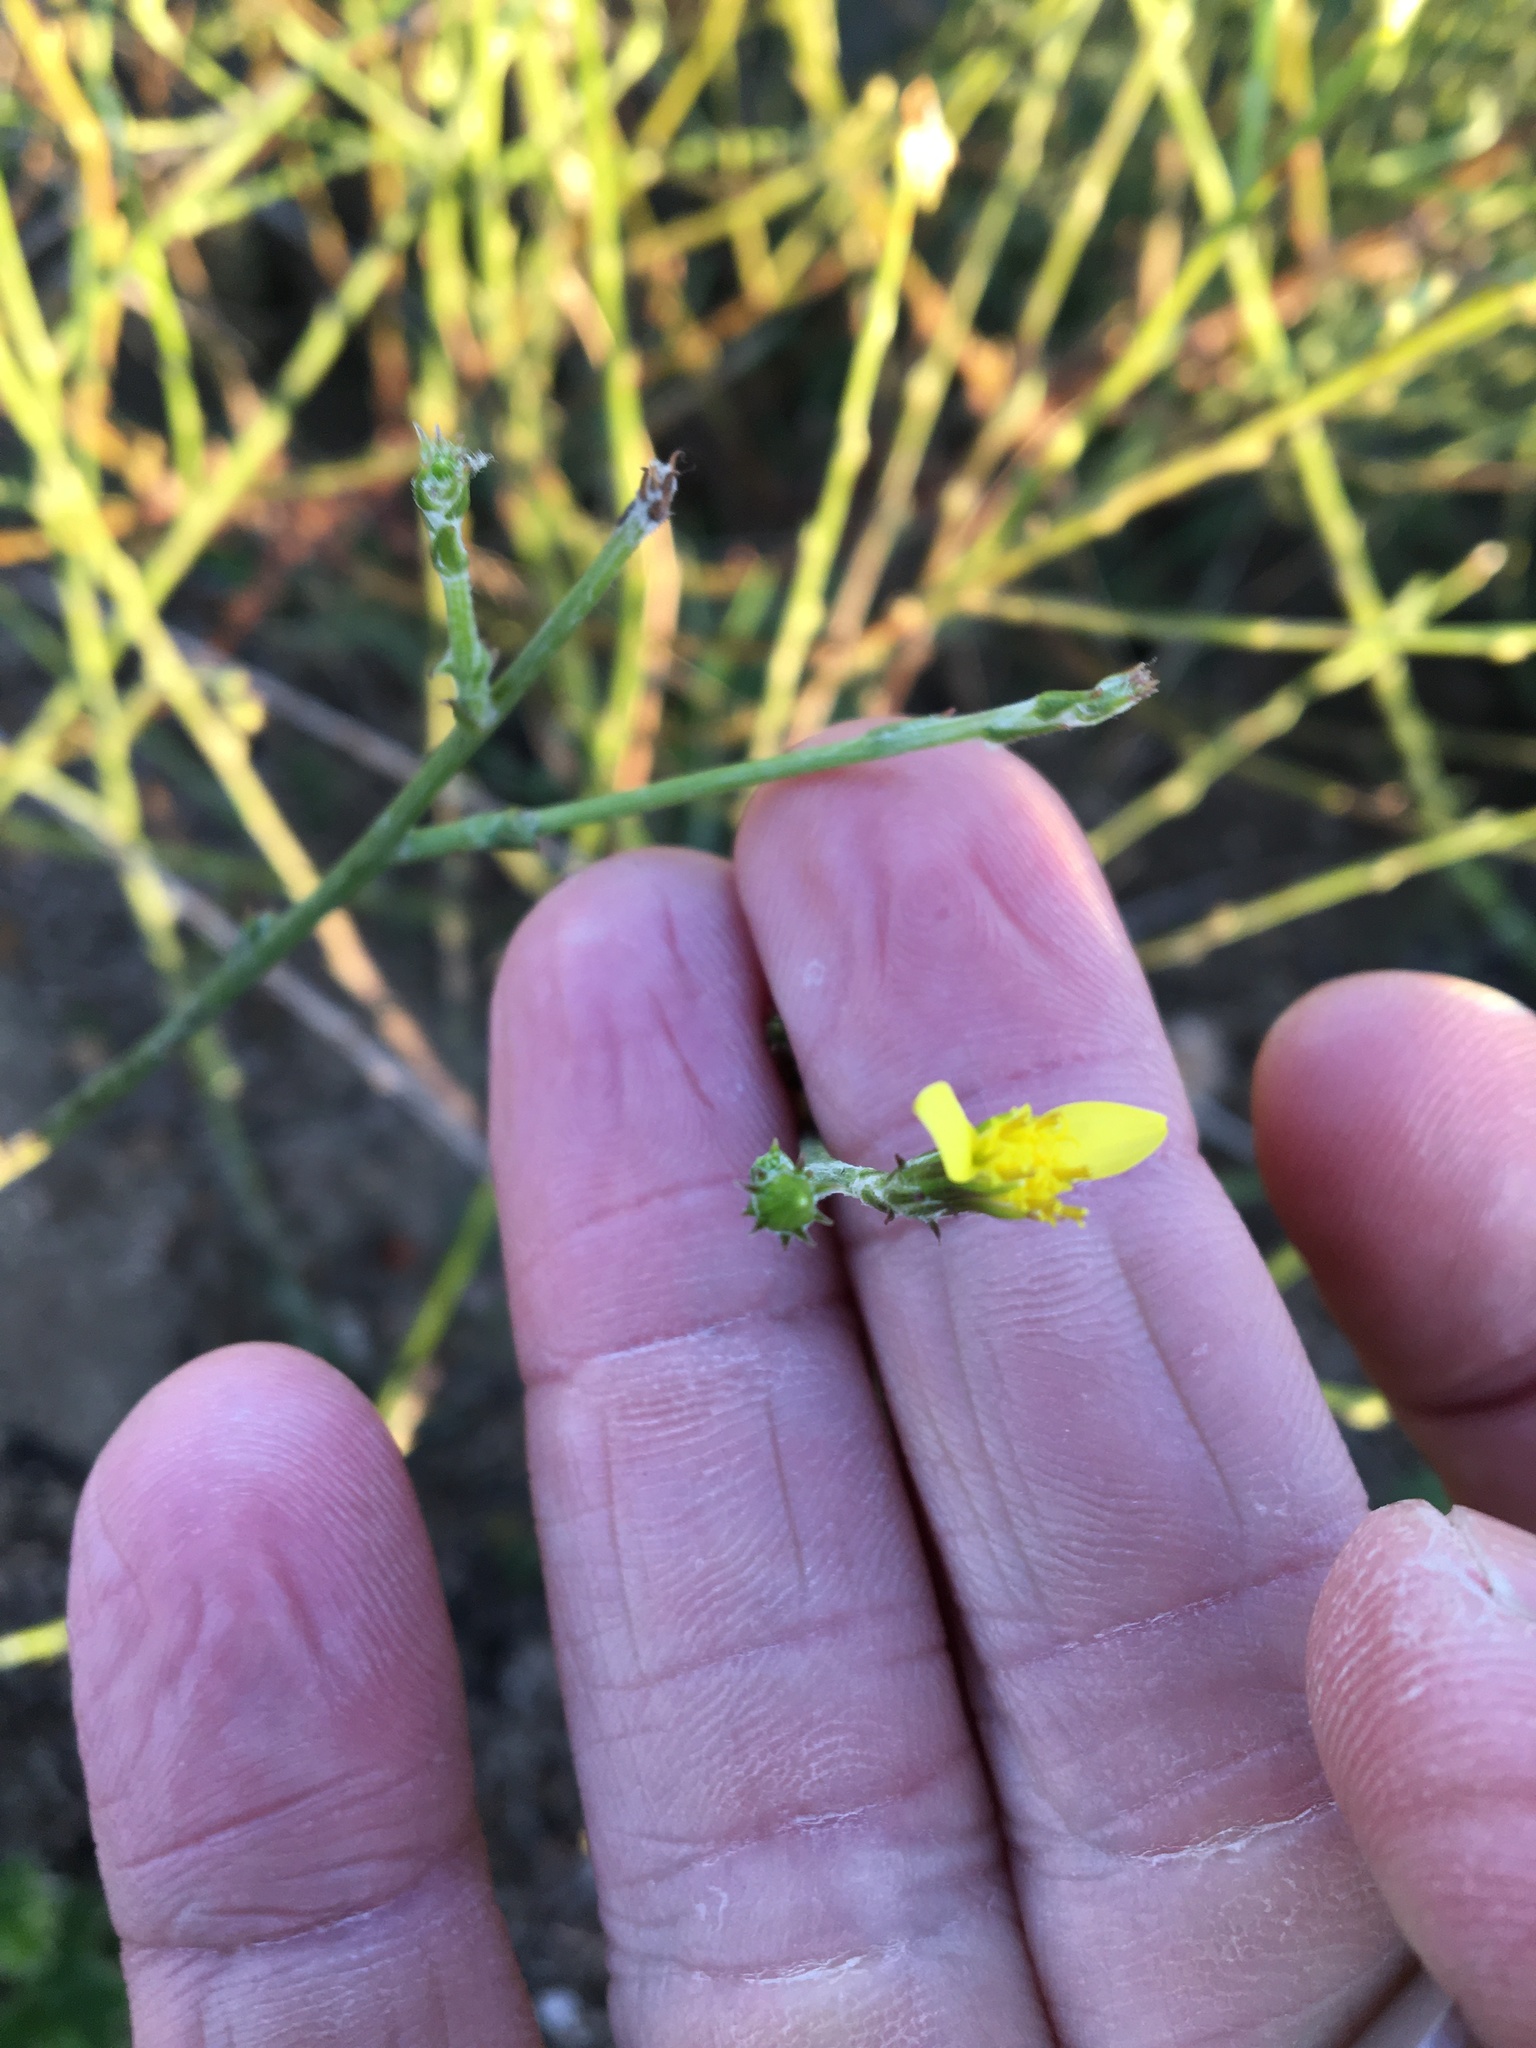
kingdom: Plantae
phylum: Tracheophyta
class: Magnoliopsida
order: Asterales
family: Asteraceae
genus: Senecio
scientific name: Senecio pubigerus
